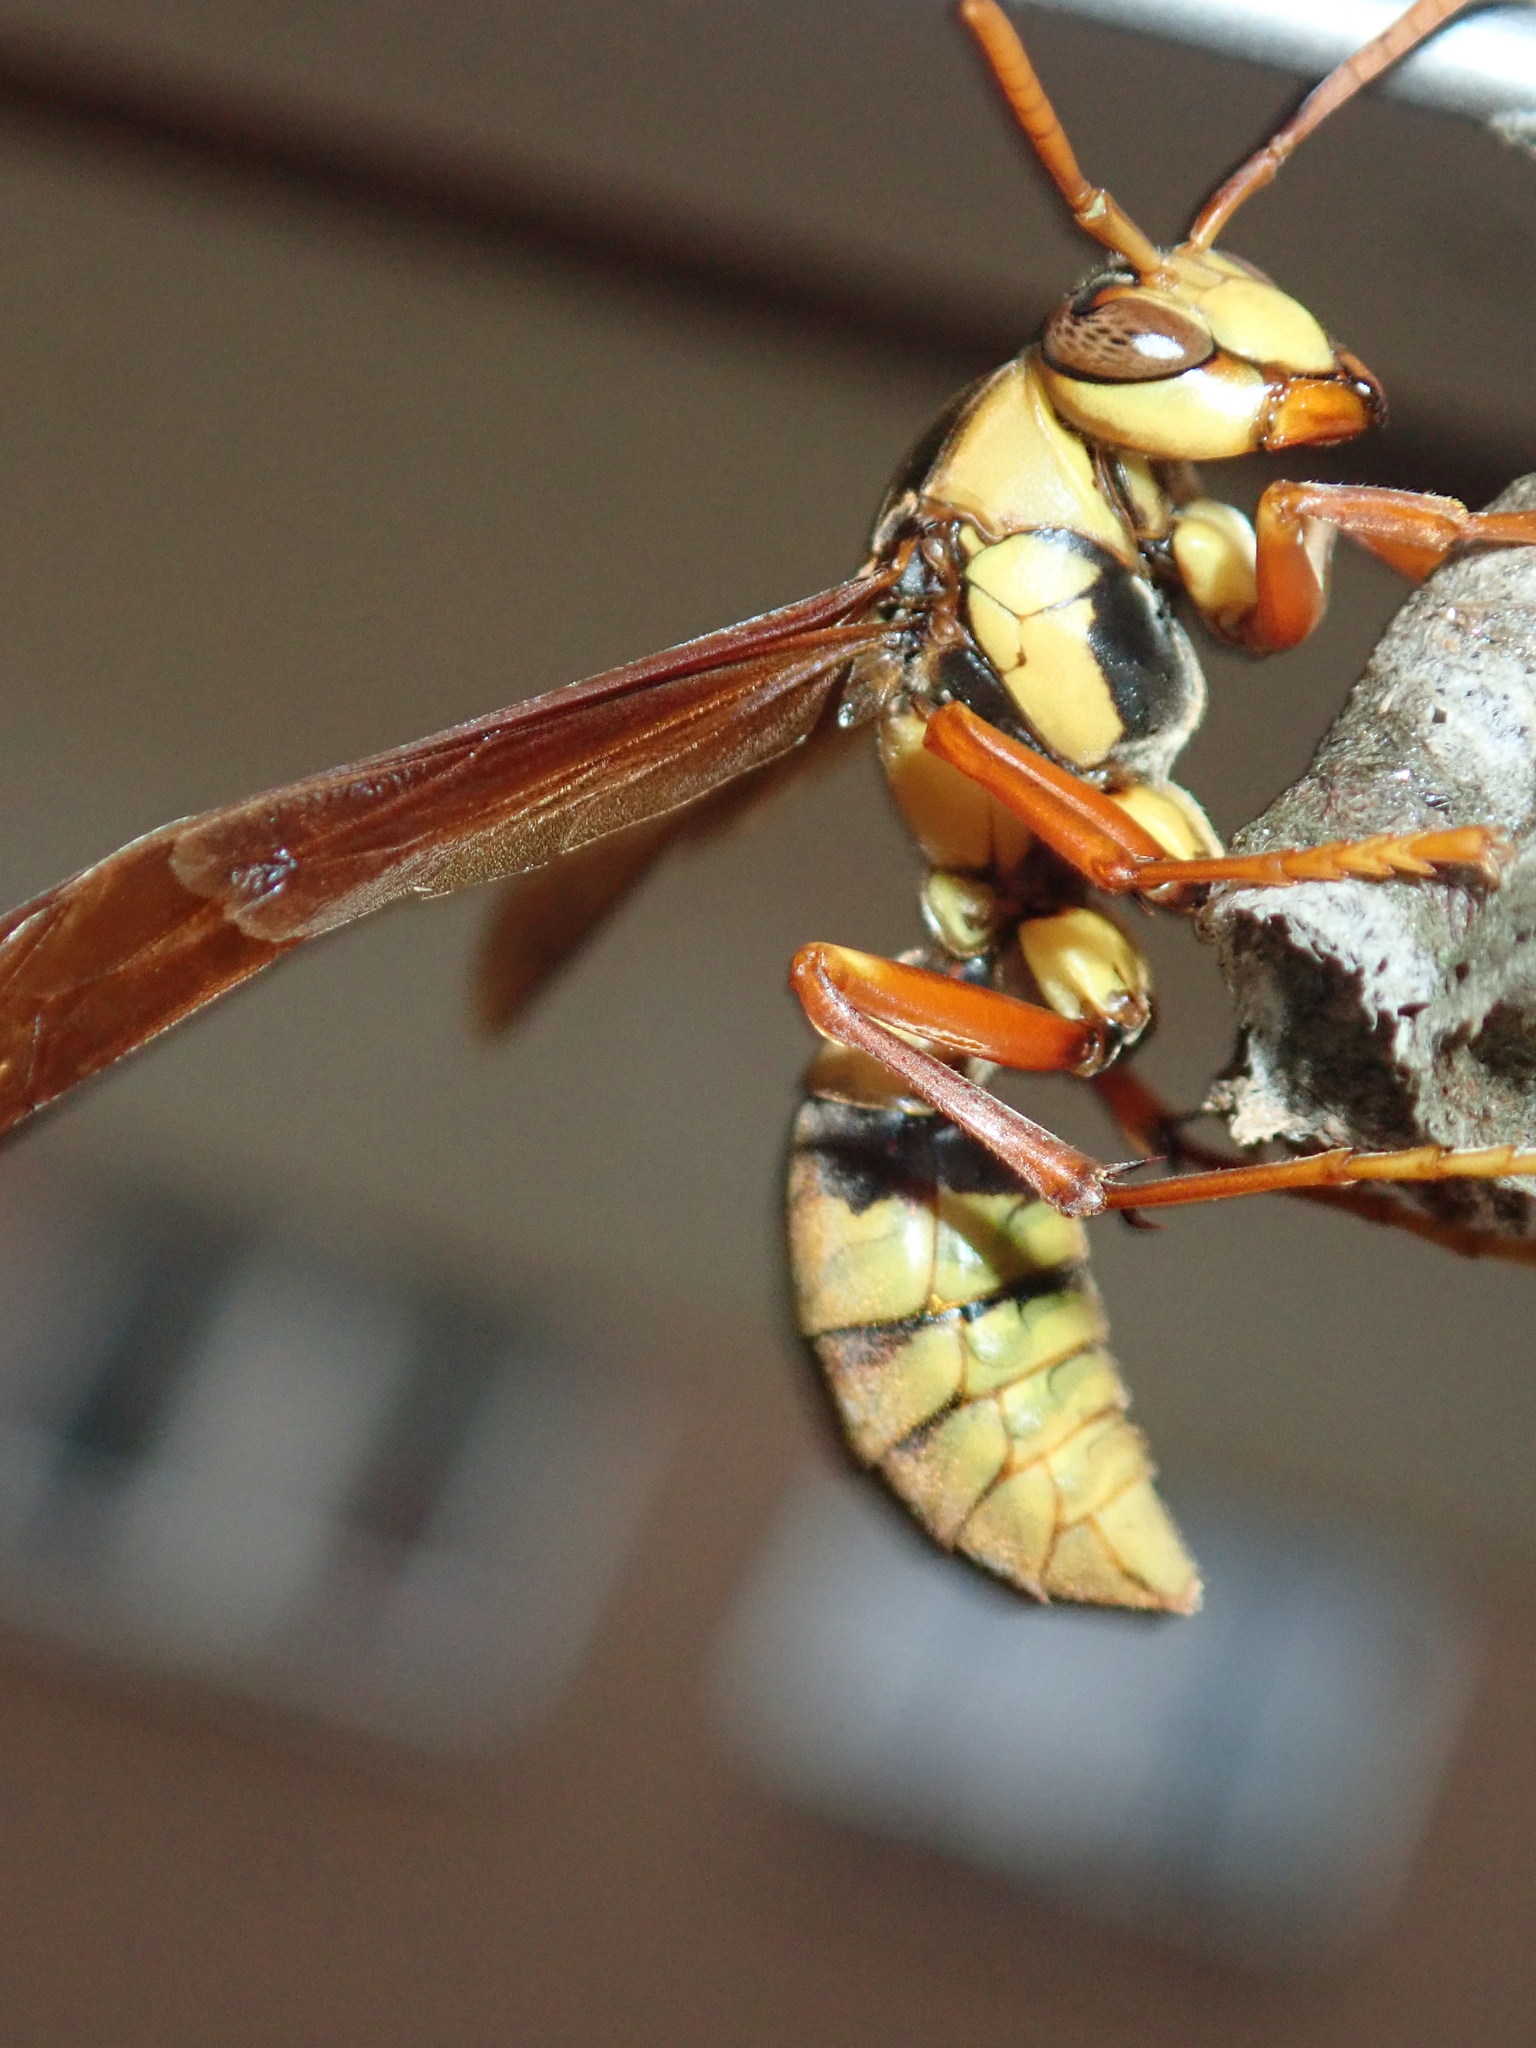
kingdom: Animalia
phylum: Arthropoda
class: Insecta
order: Hymenoptera
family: Eumenidae
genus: Polistes
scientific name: Polistes carnifex
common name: Paper wasp
